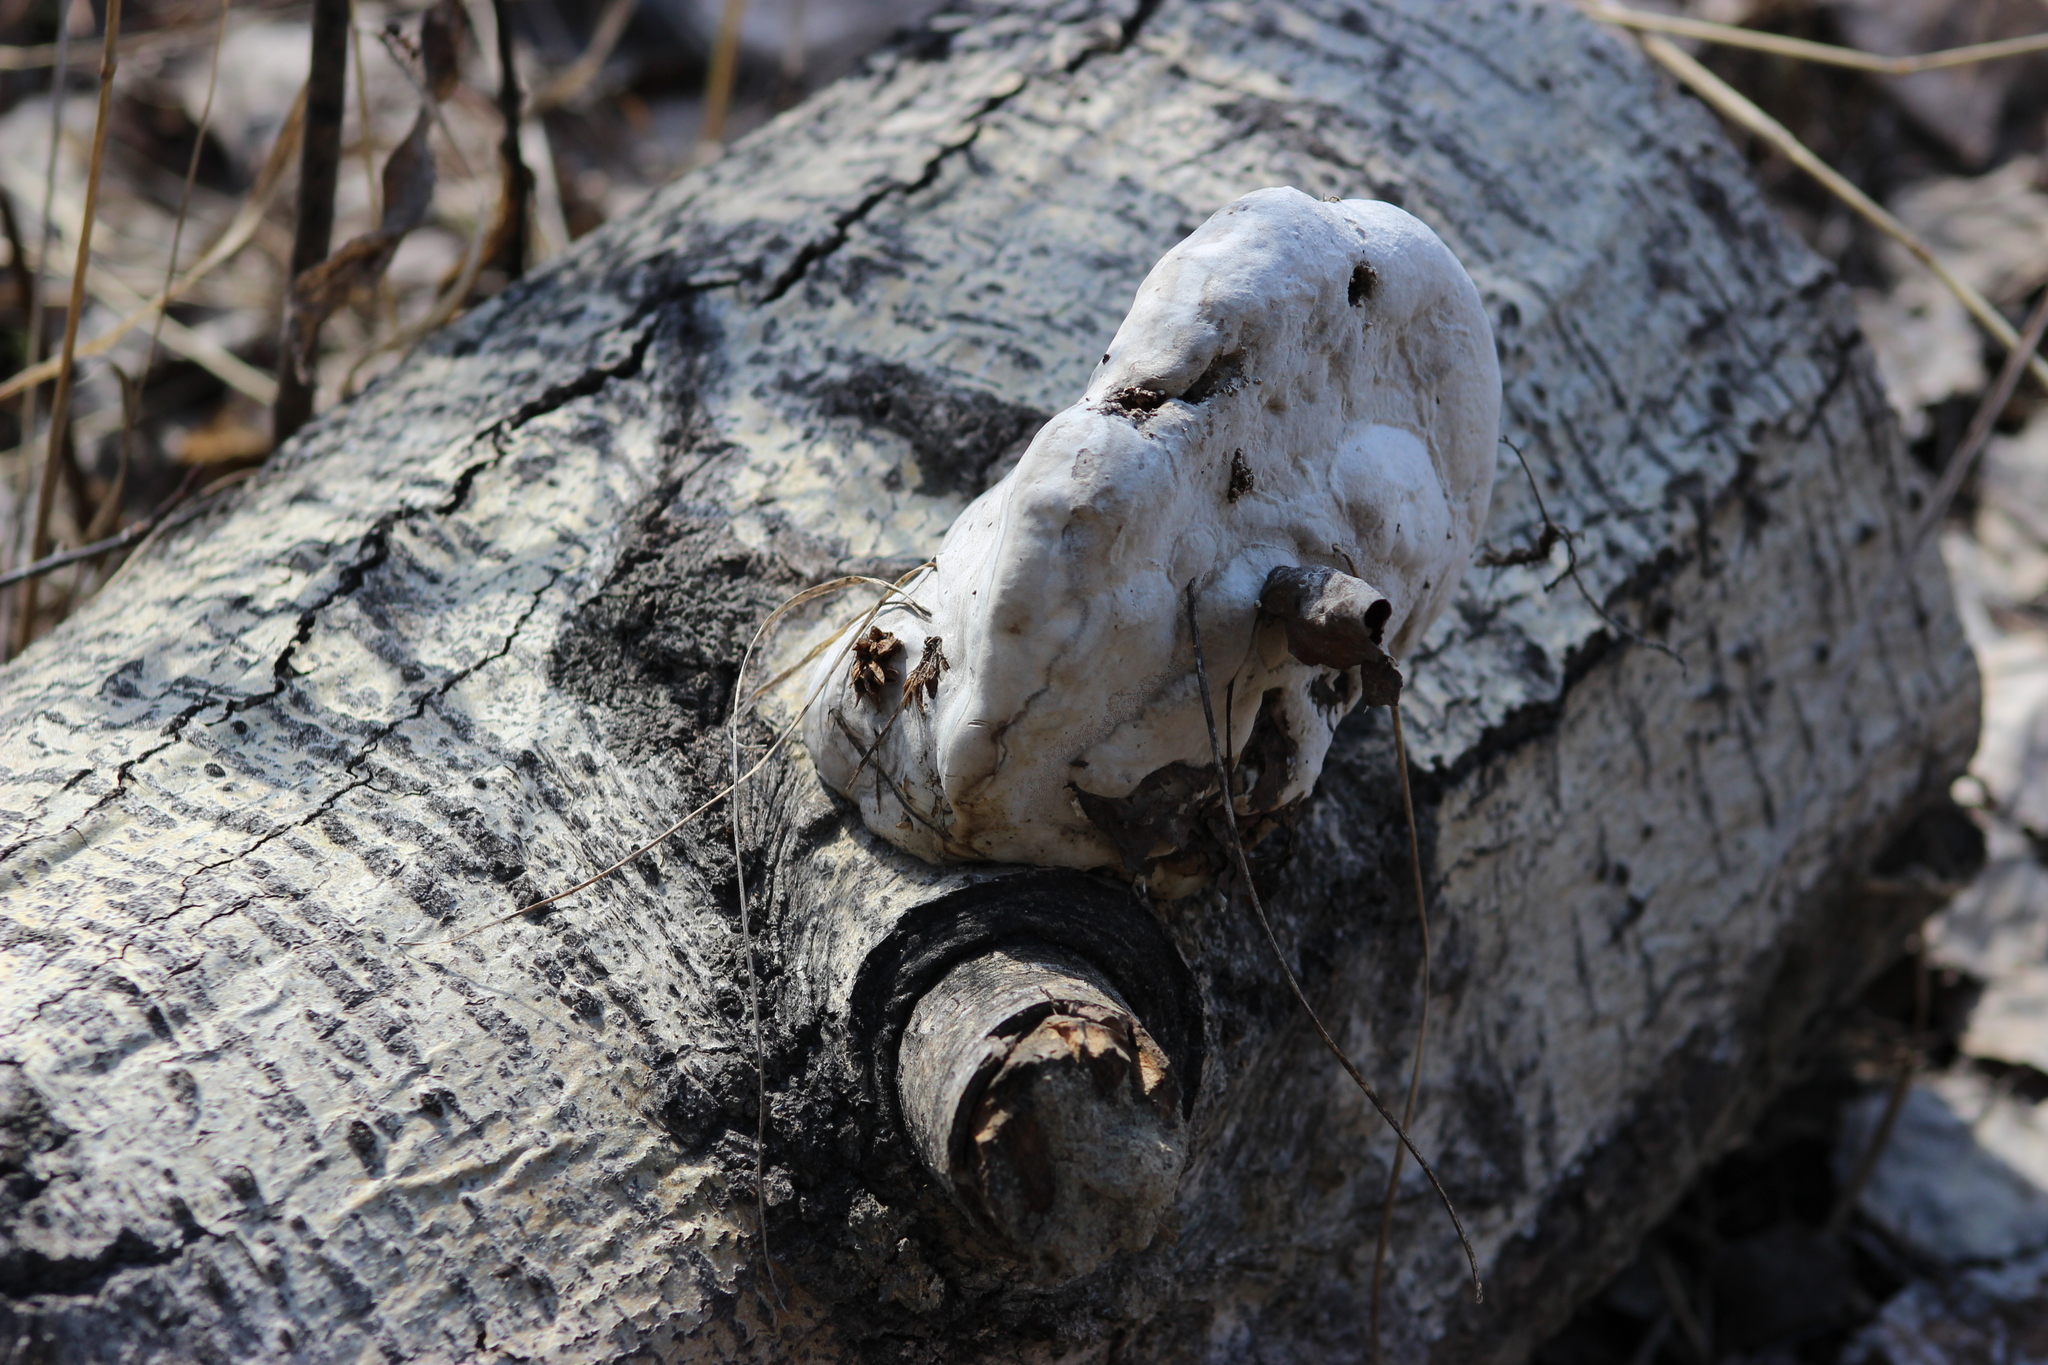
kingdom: Fungi
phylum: Basidiomycota
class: Agaricomycetes
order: Polyporales
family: Polyporaceae
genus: Fomes
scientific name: Fomes fomentarius
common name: Hoof fungus
